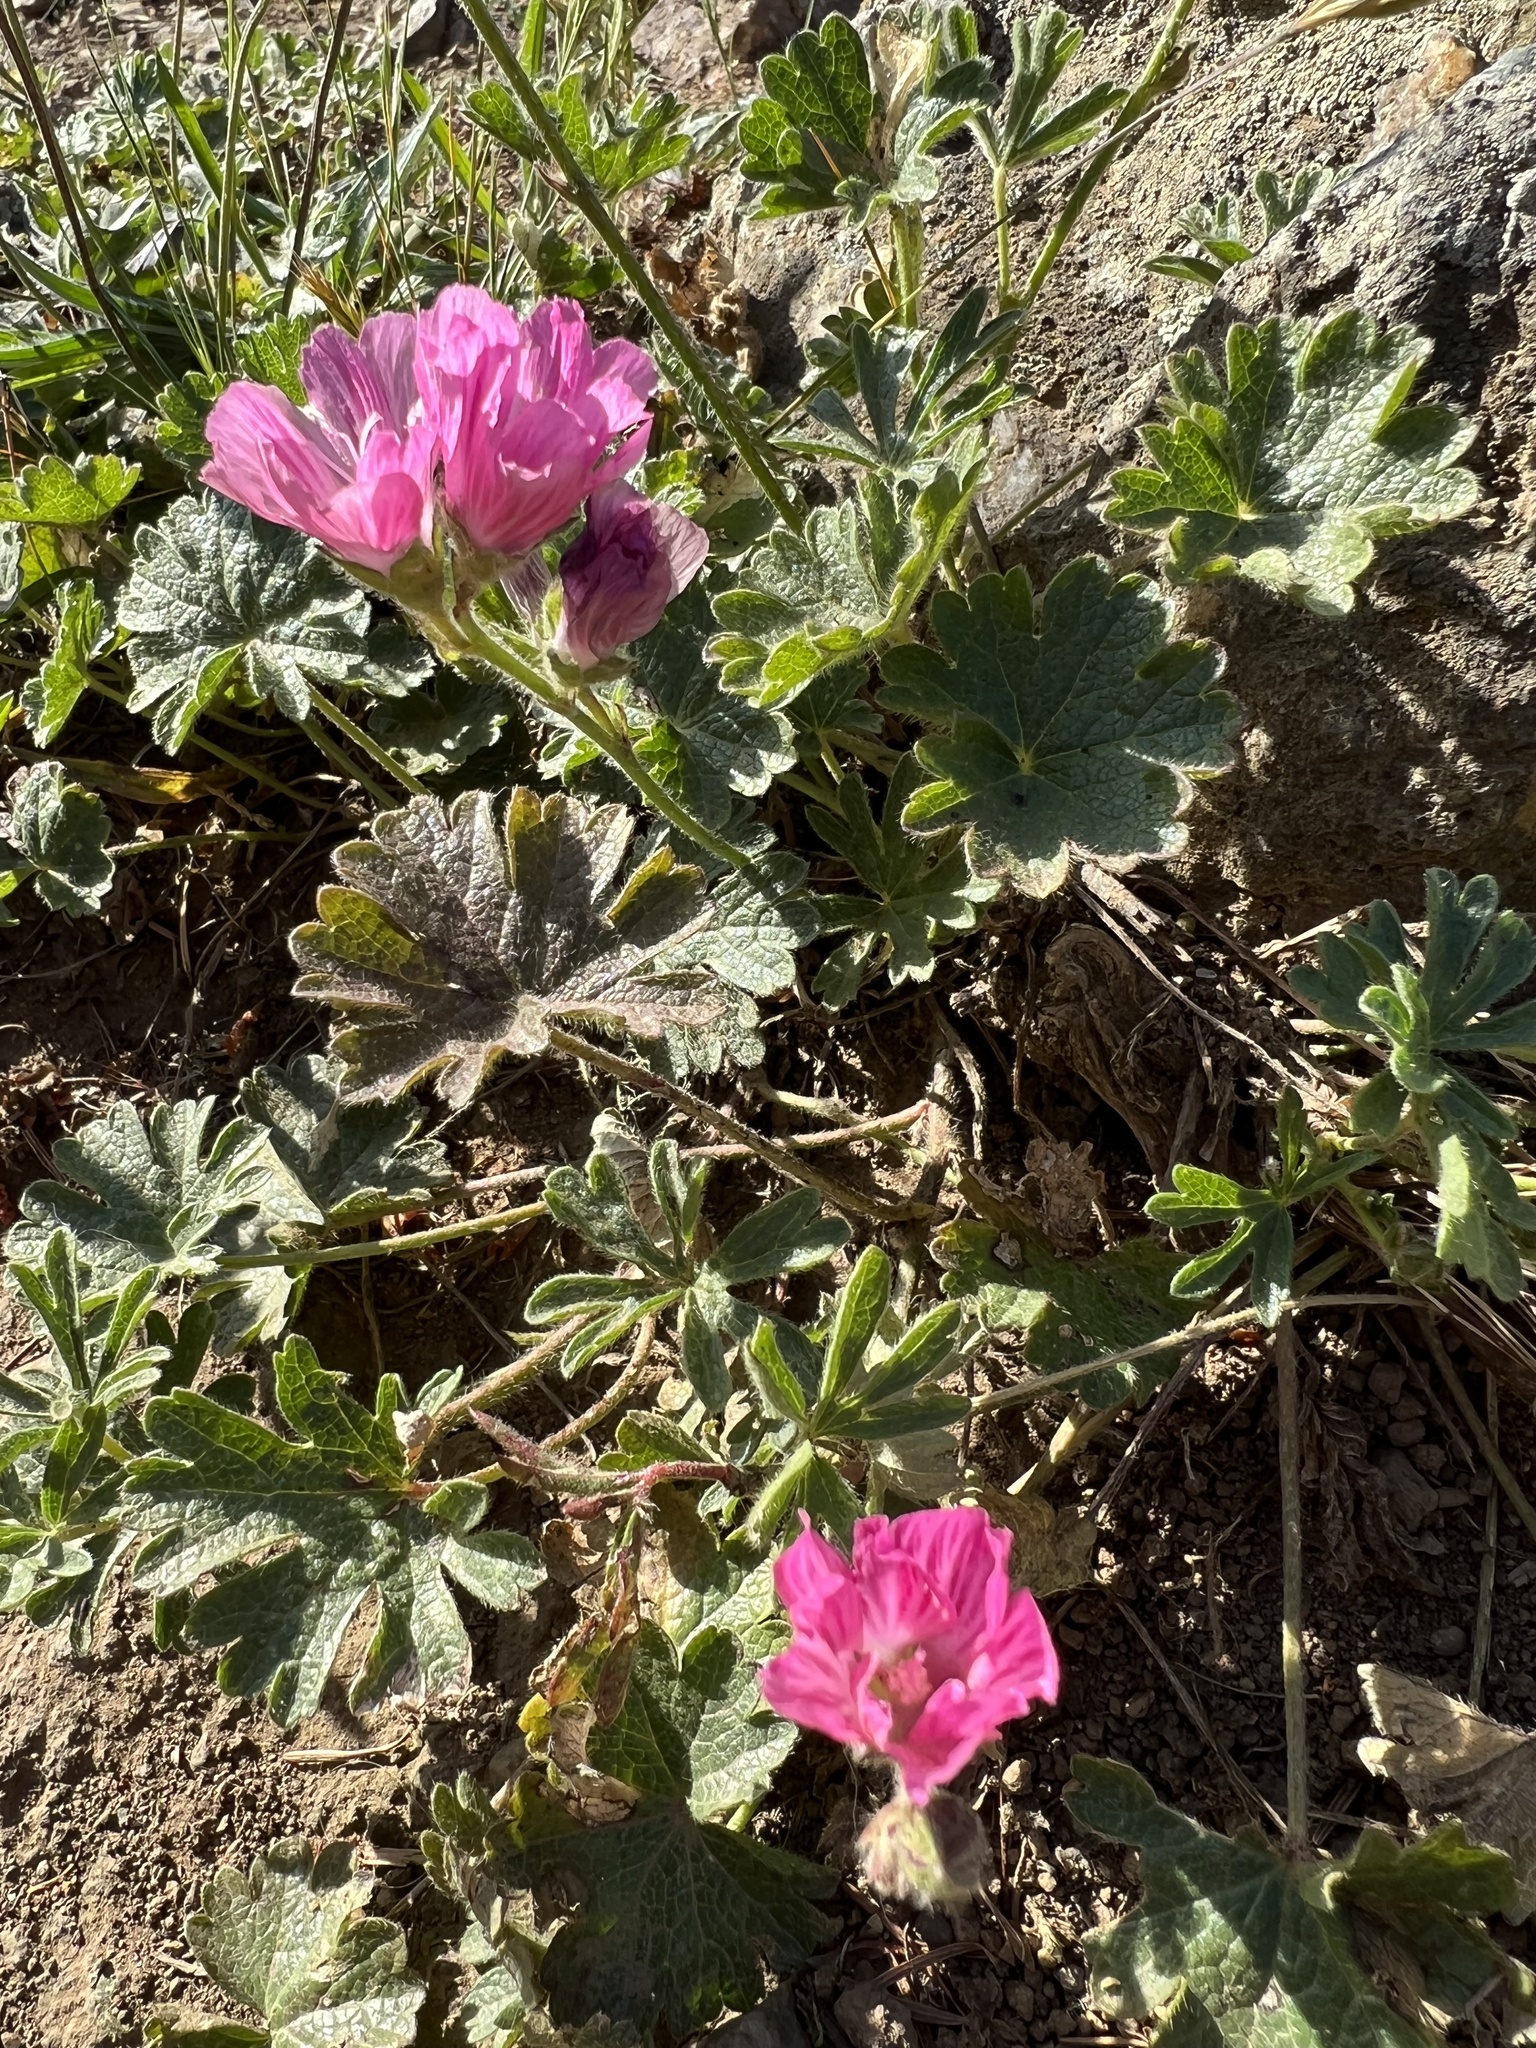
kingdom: Plantae
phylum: Tracheophyta
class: Magnoliopsida
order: Malvales
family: Malvaceae
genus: Sidalcea
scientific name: Sidalcea malviflora
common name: Greek mallow
